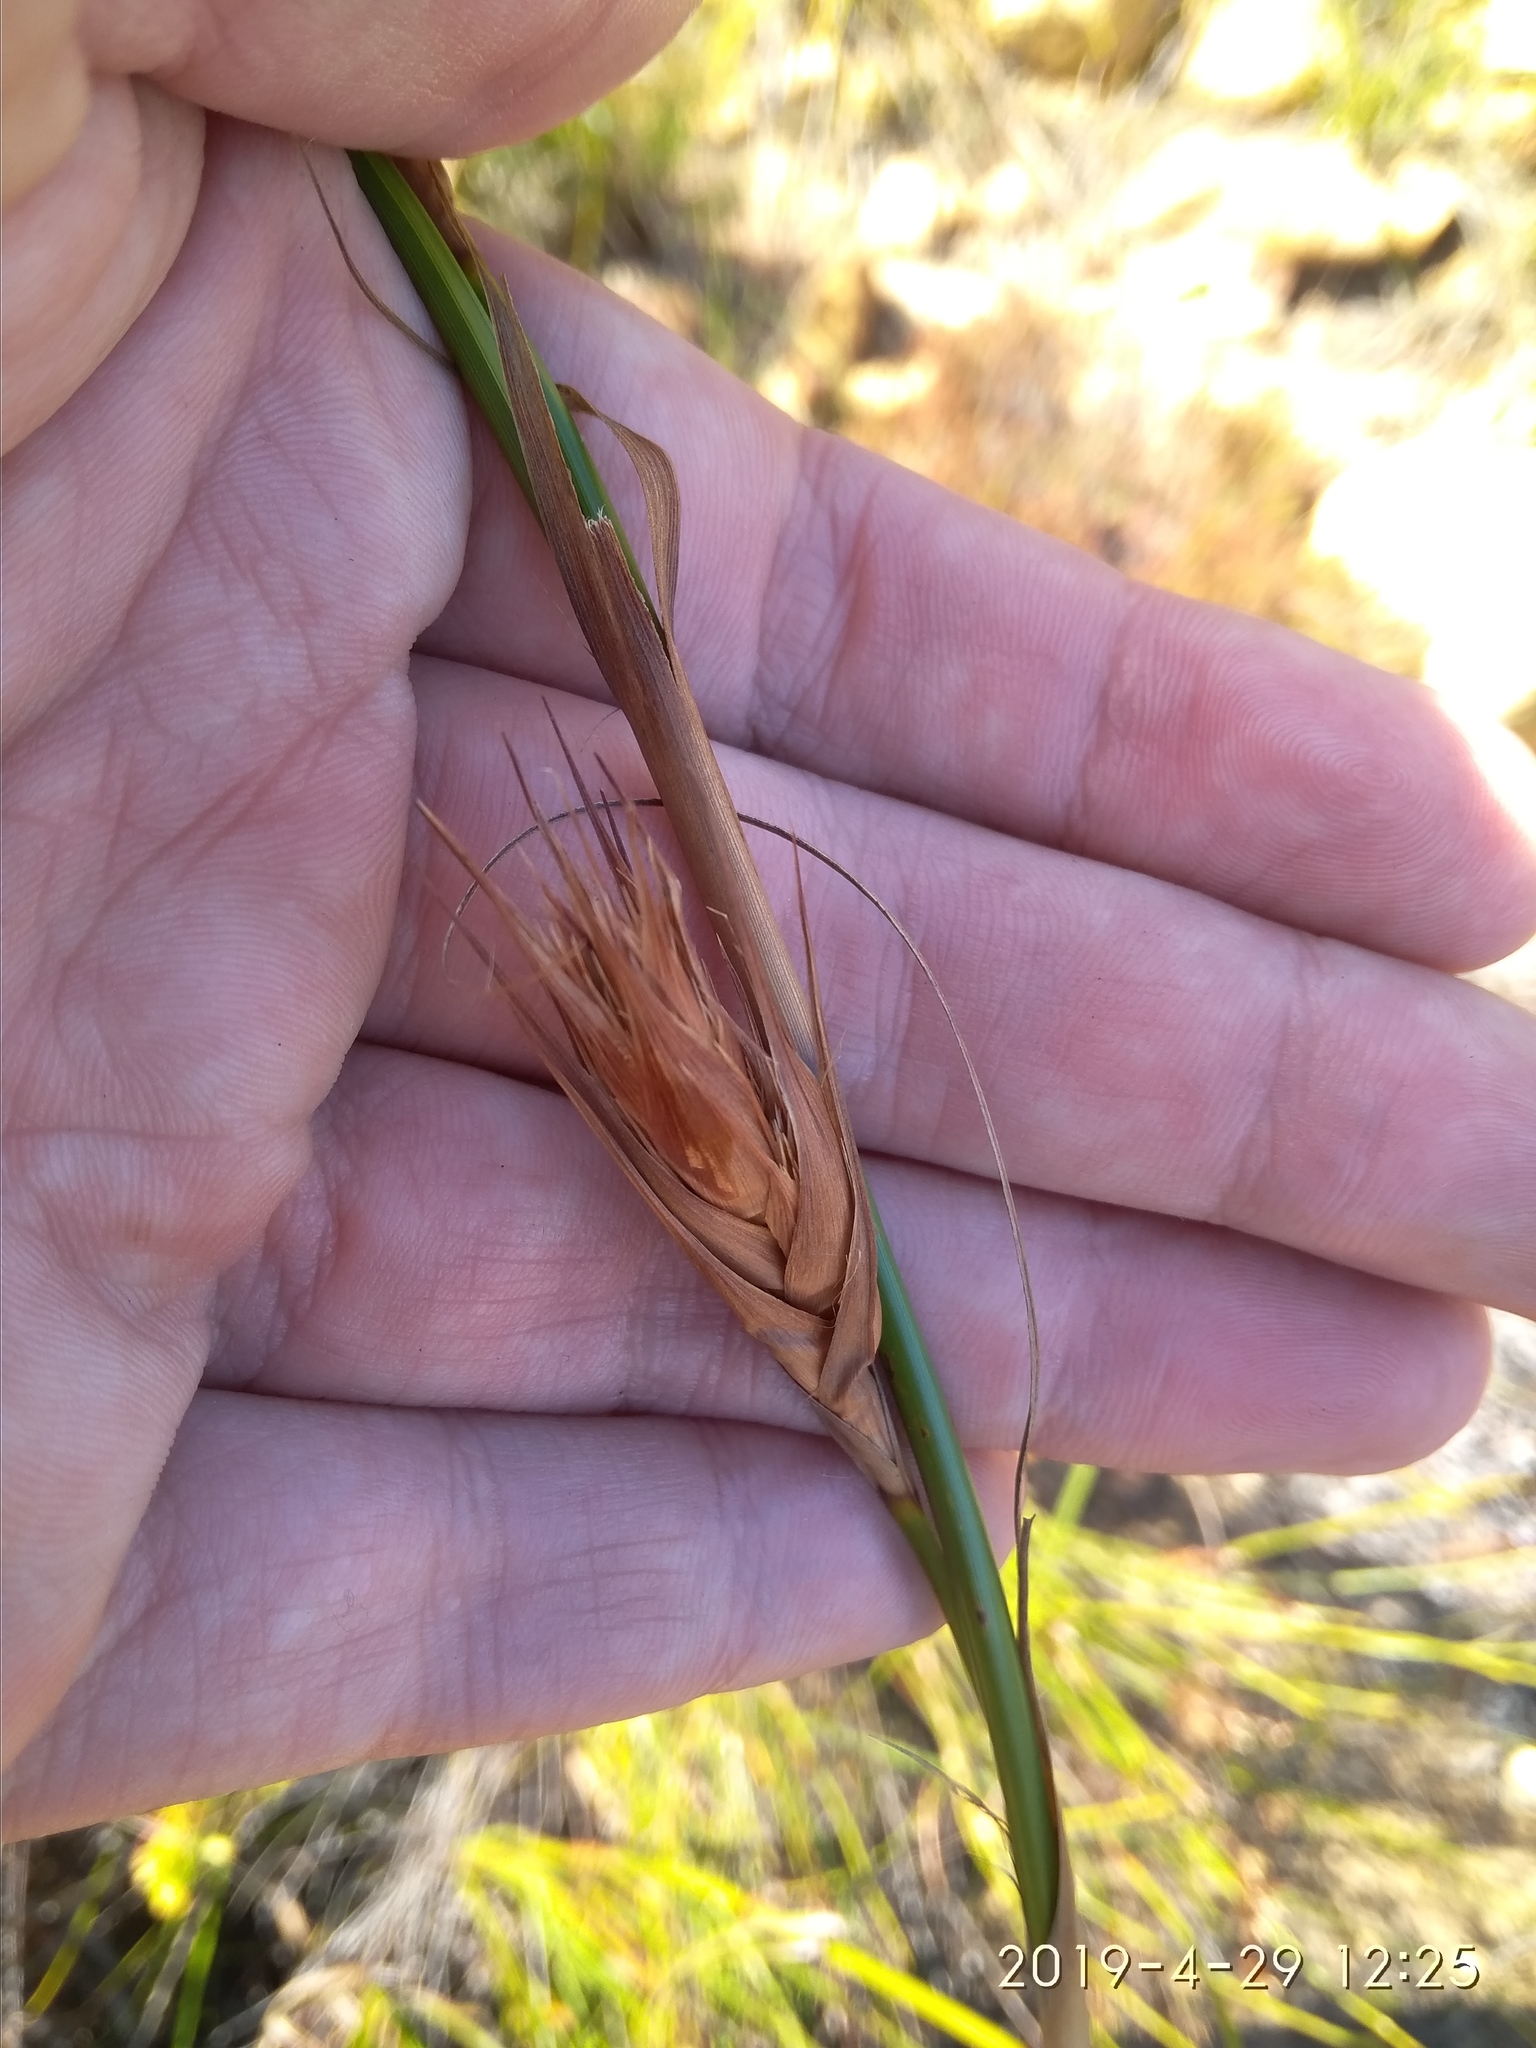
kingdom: Plantae
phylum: Tracheophyta
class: Liliopsida
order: Poales
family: Cyperaceae
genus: Tetraria
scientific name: Tetraria bromoides
